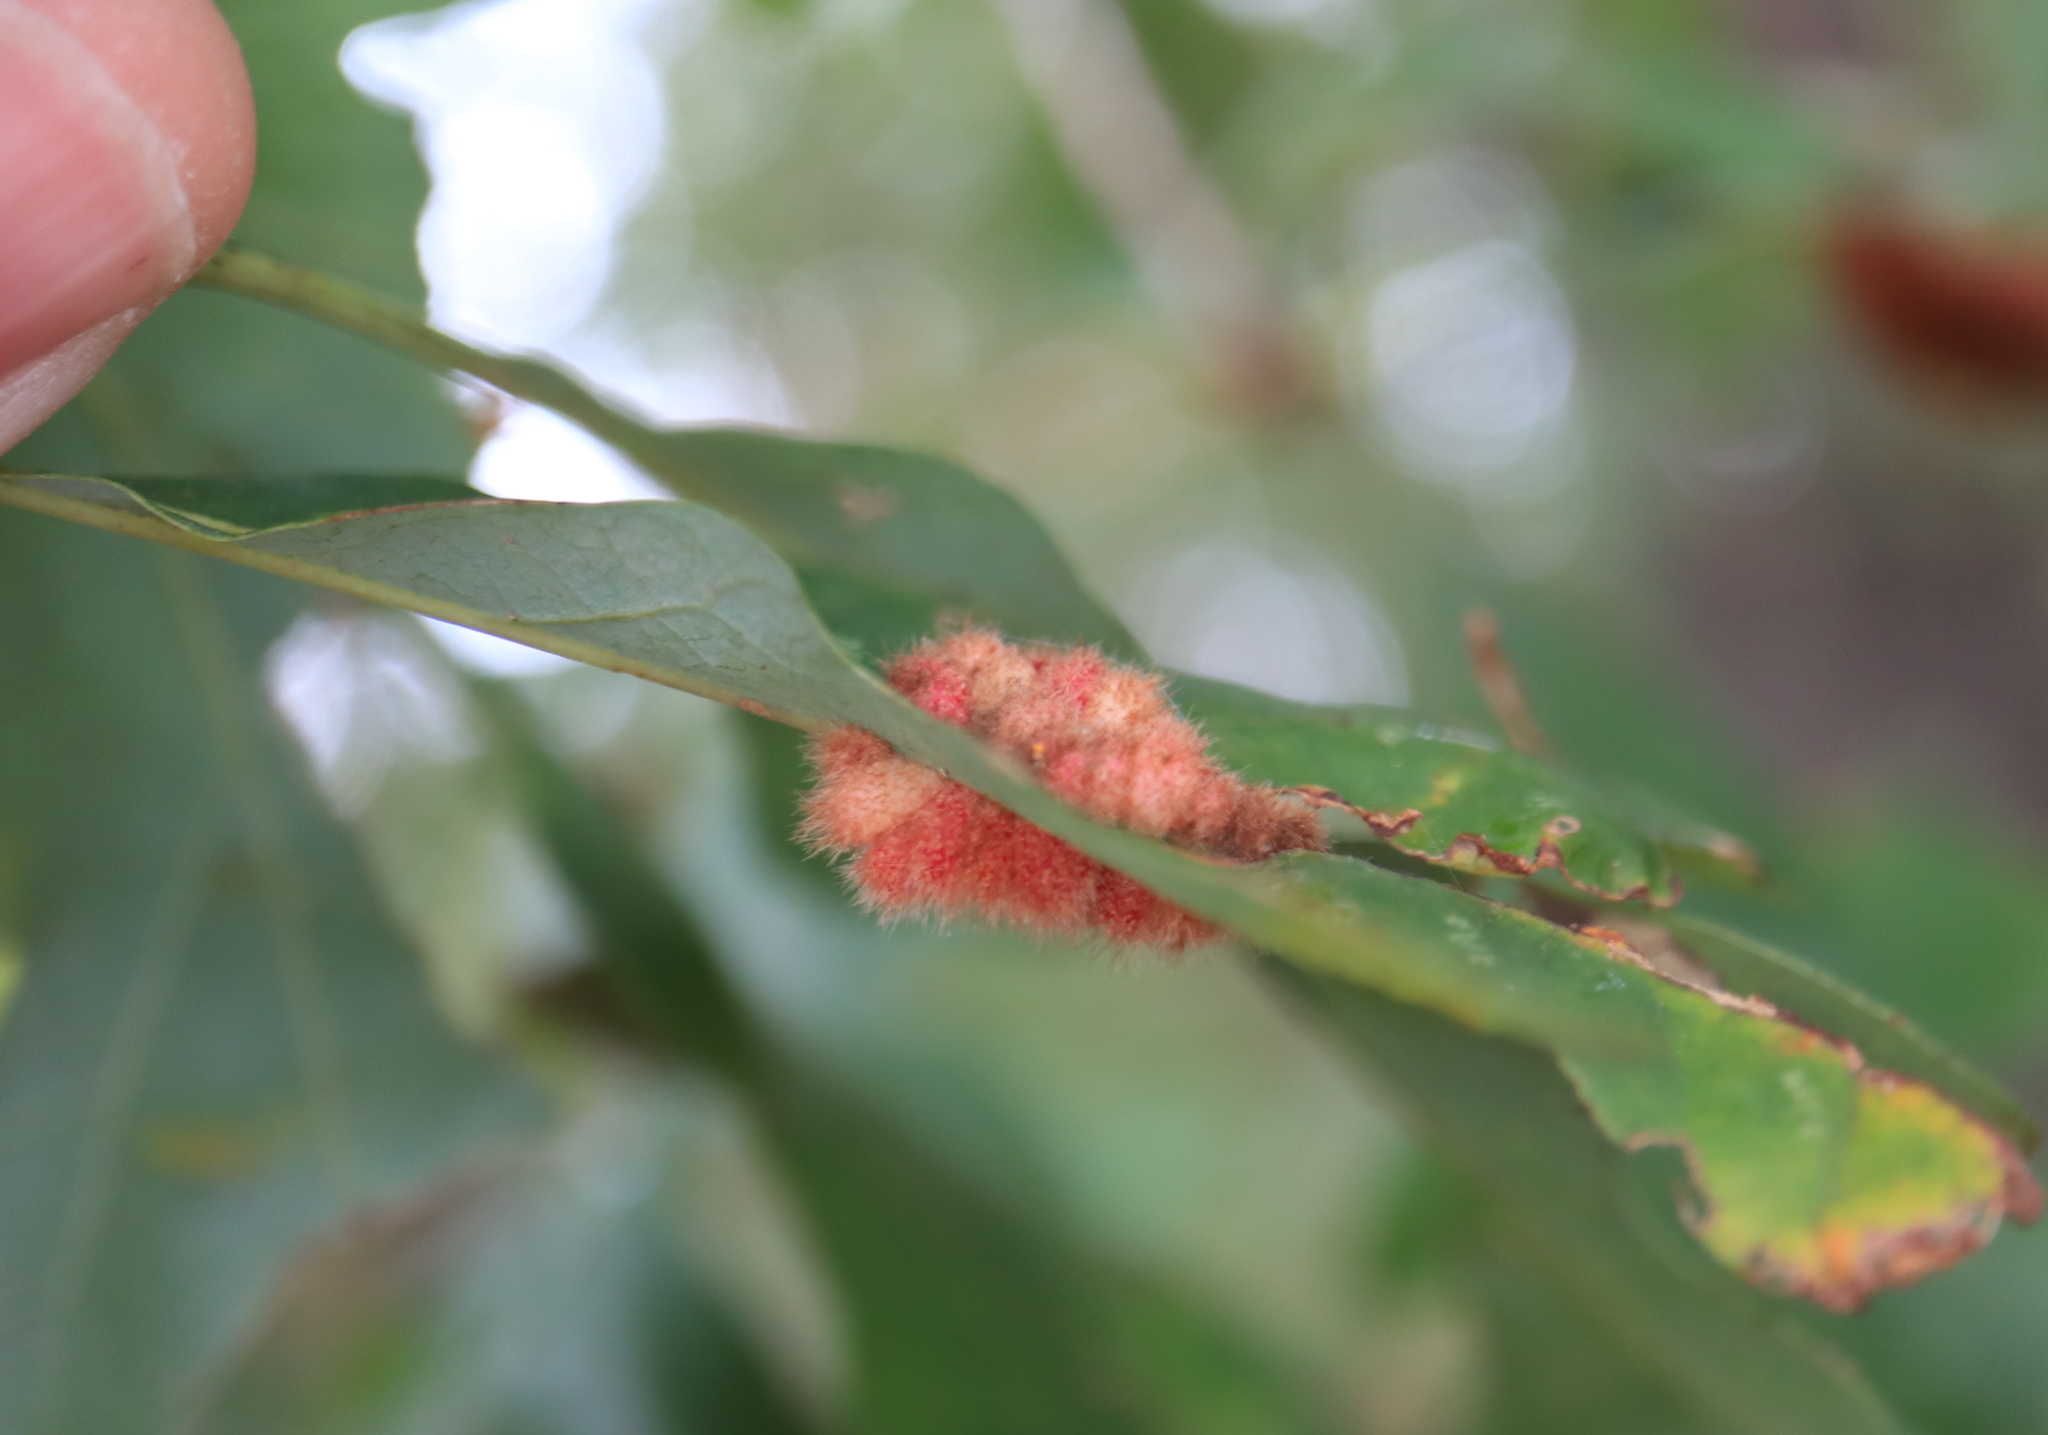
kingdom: Animalia
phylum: Arthropoda
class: Insecta
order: Hymenoptera
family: Cynipidae
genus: Andricus
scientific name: Andricus
